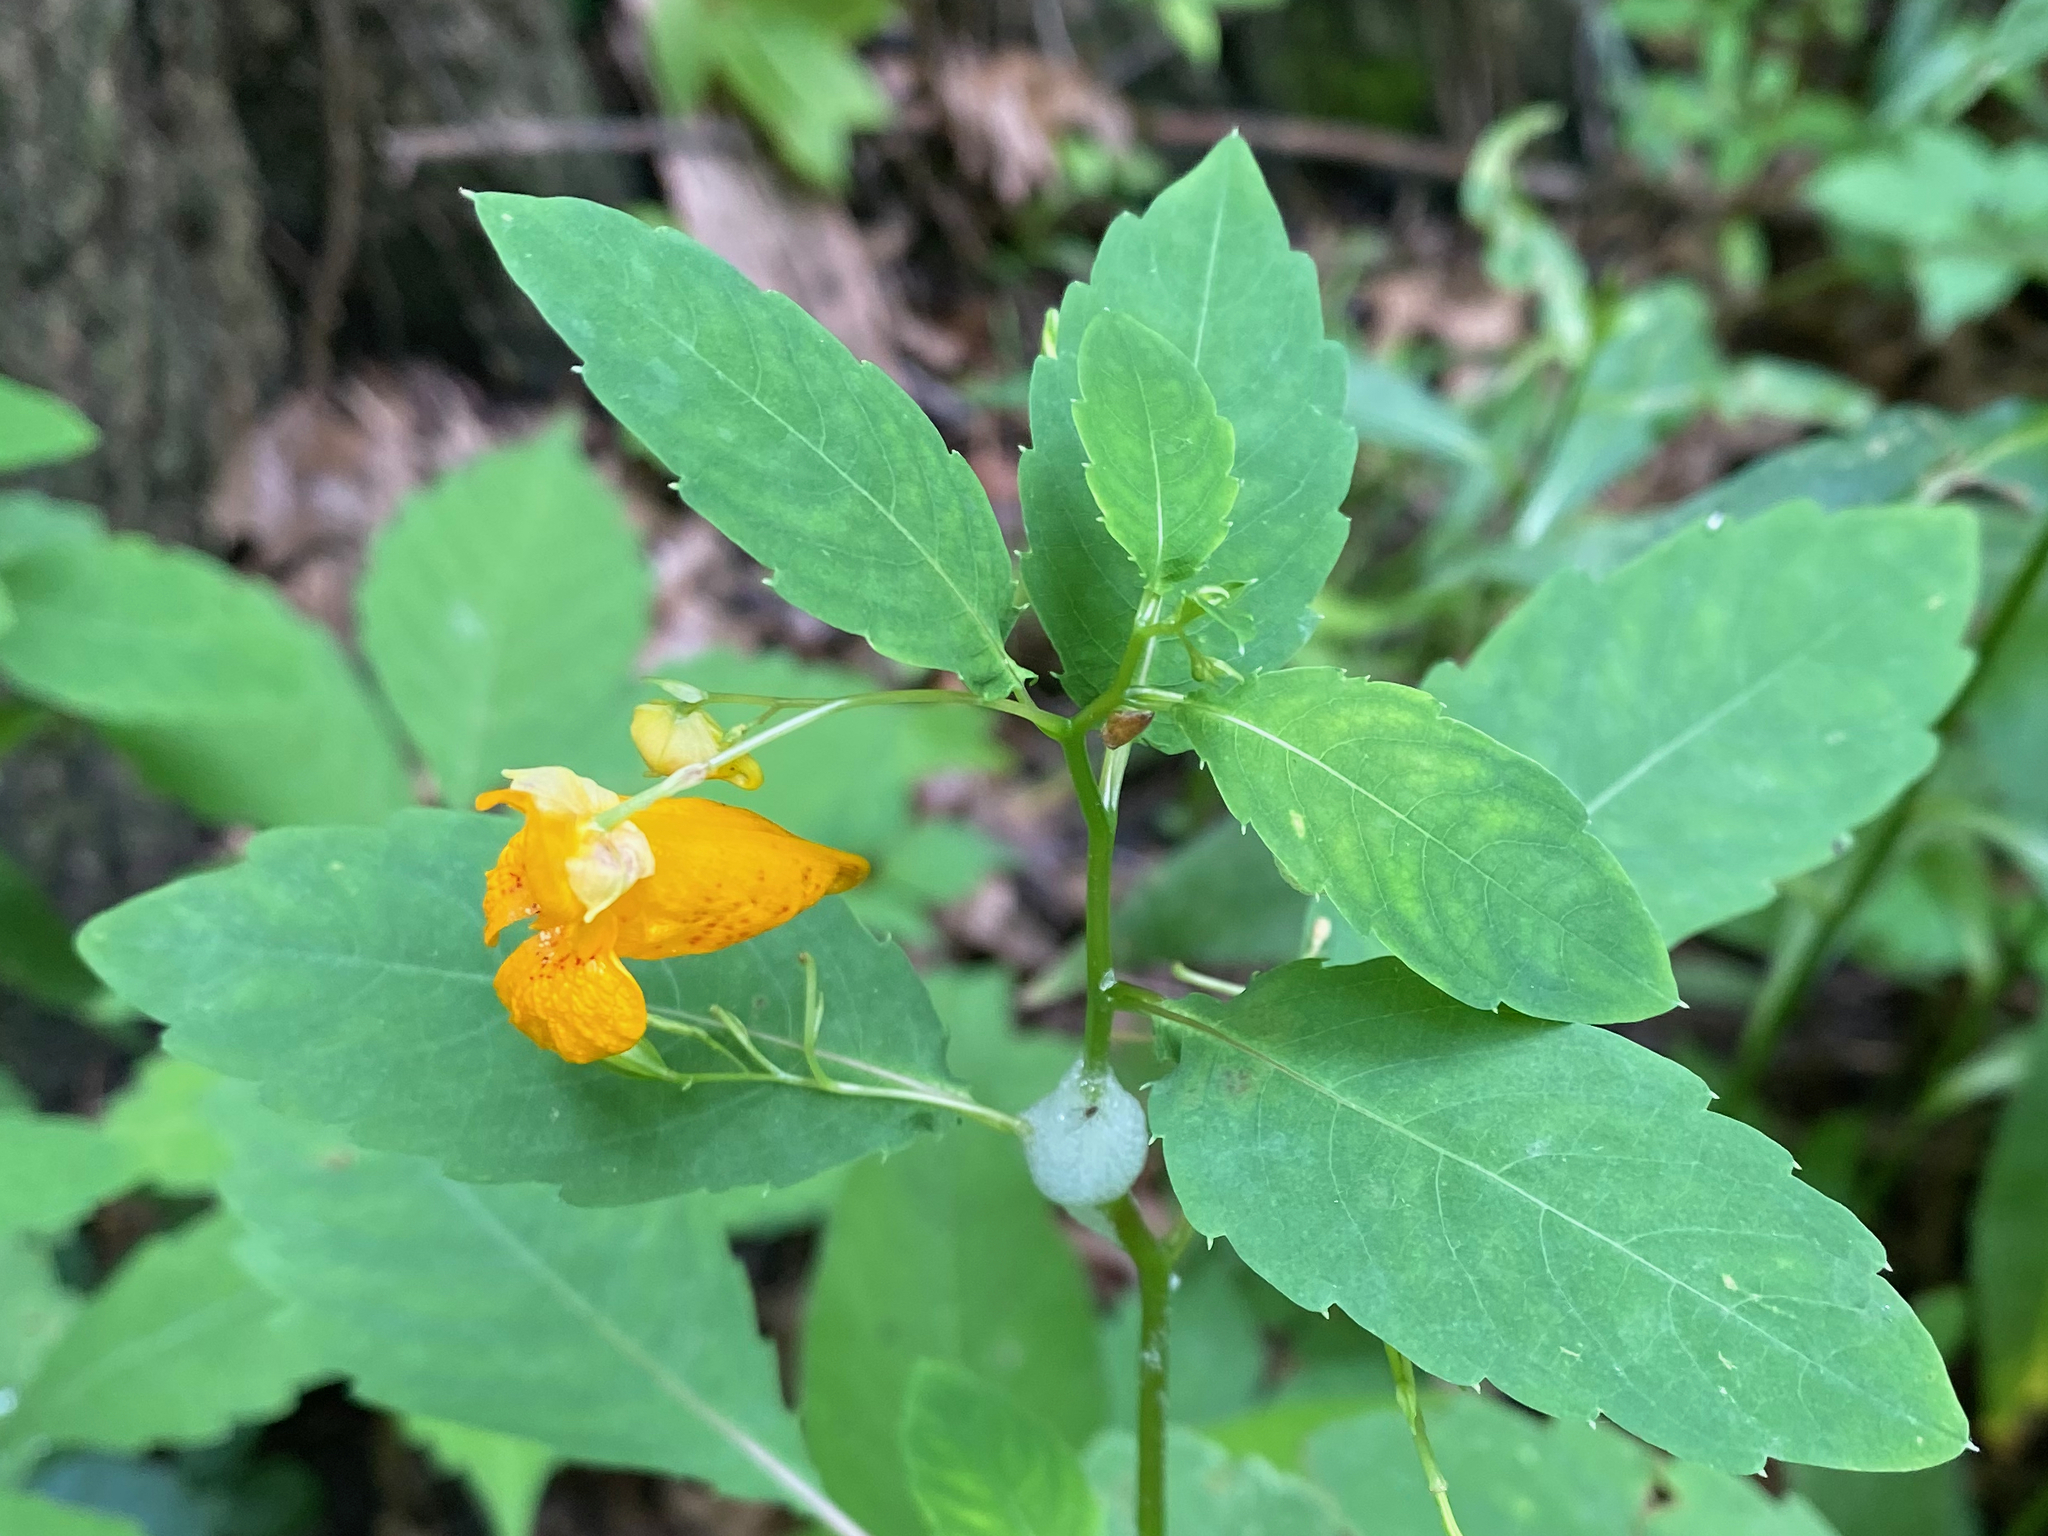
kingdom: Plantae
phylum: Tracheophyta
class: Magnoliopsida
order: Ericales
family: Balsaminaceae
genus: Impatiens
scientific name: Impatiens capensis
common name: Orange balsam
